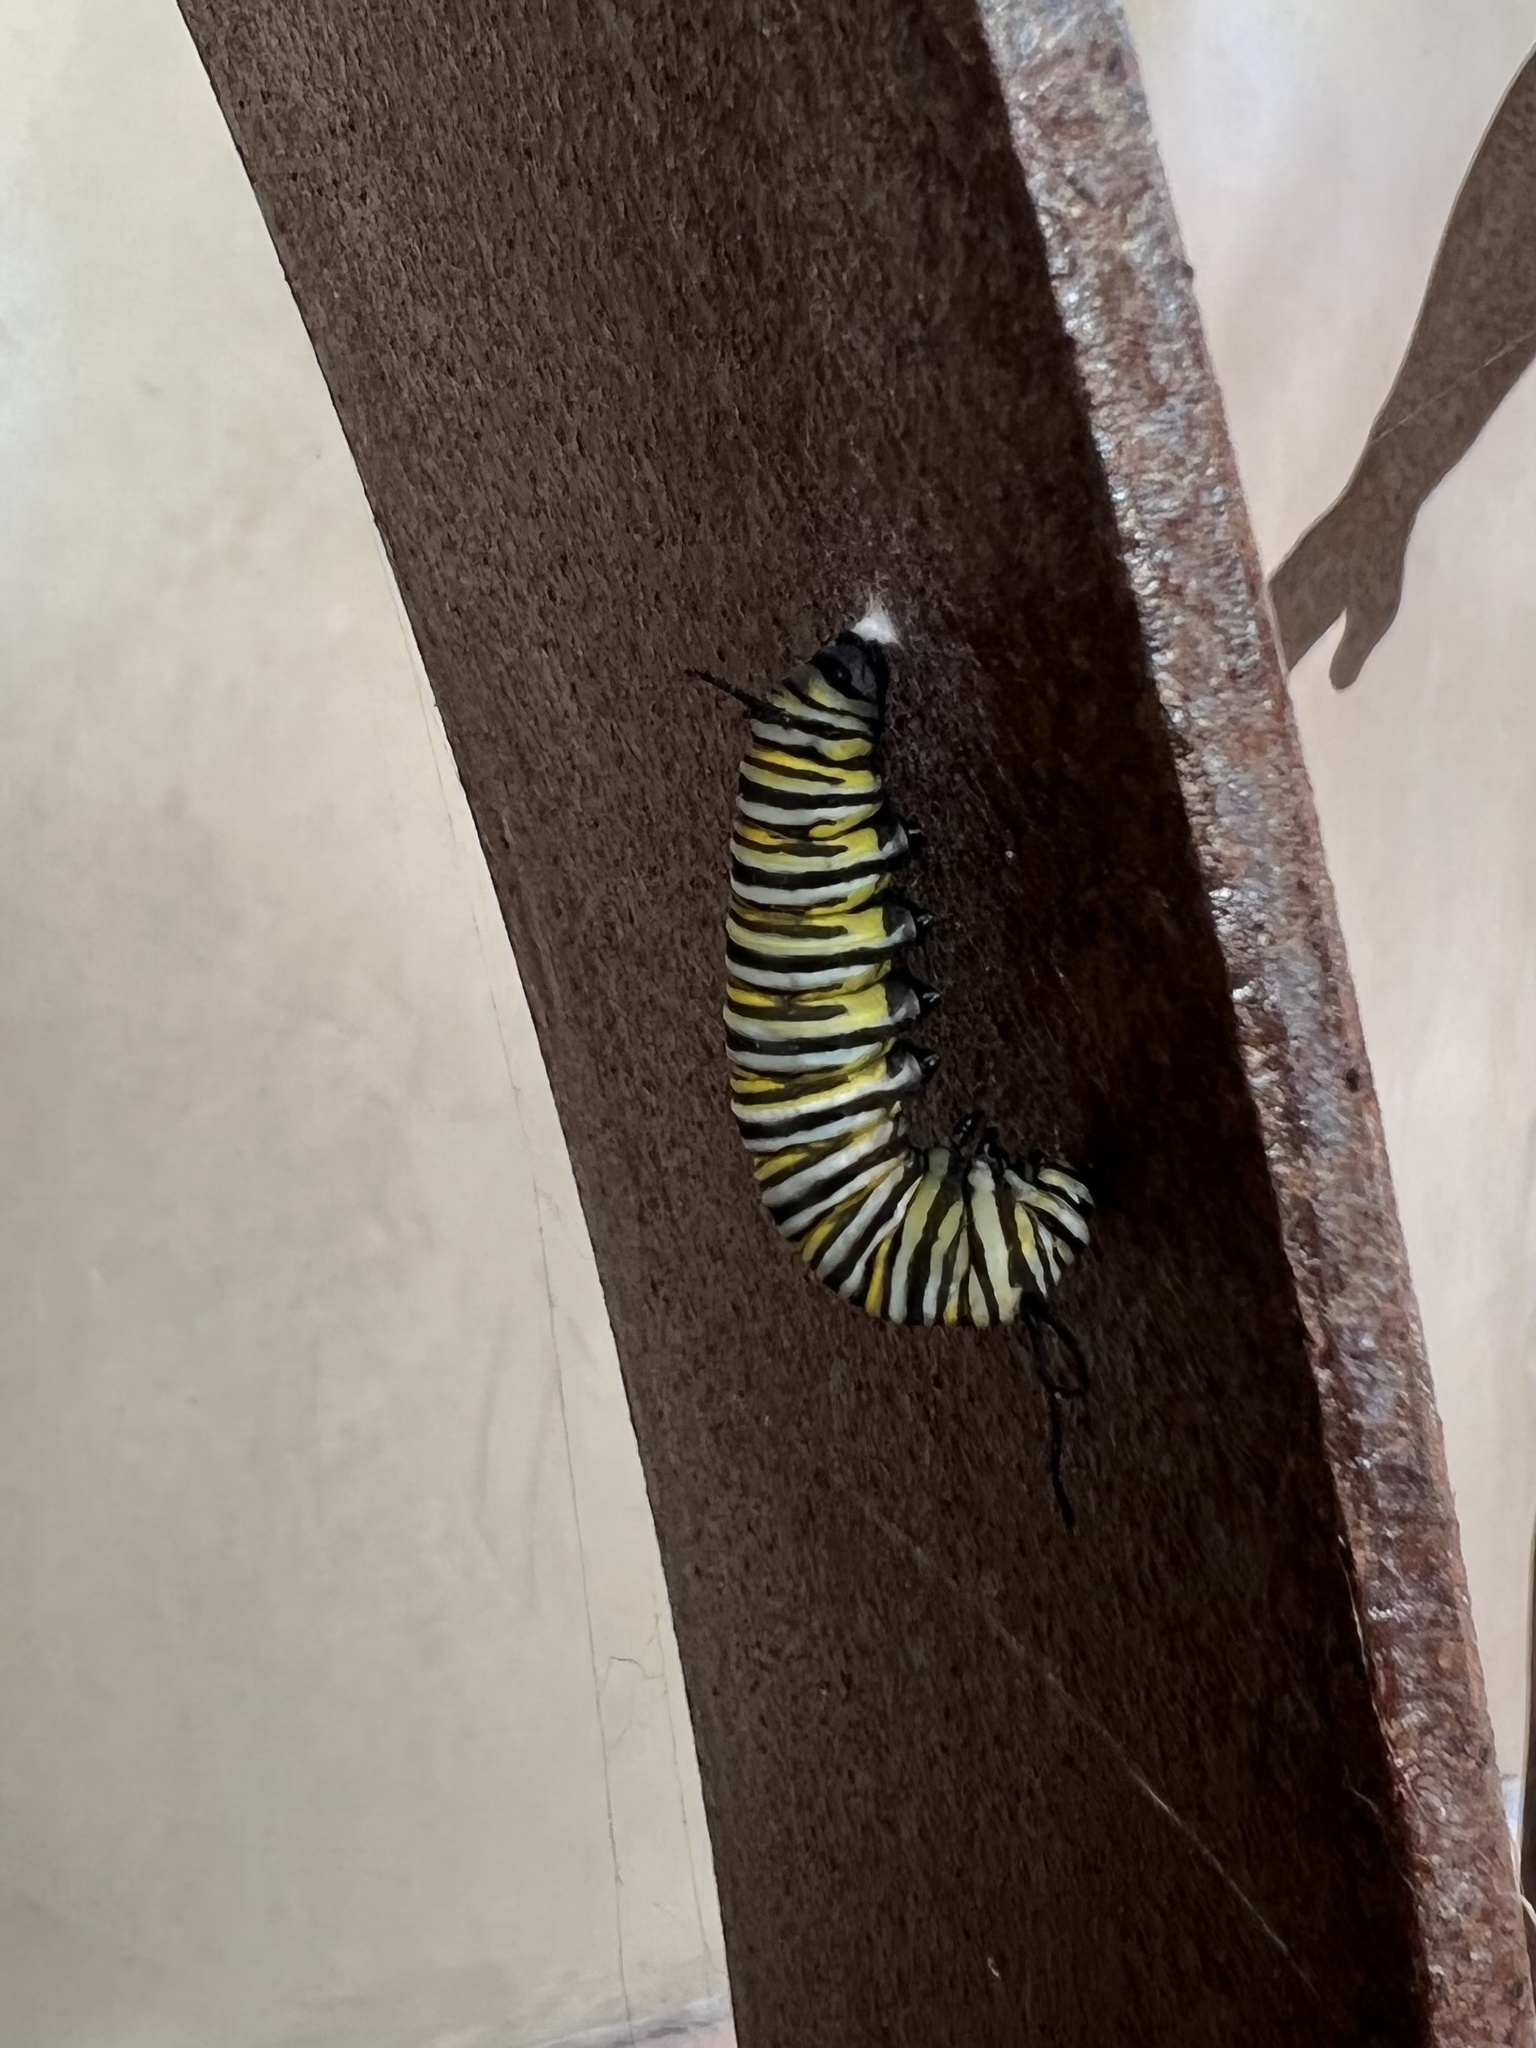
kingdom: Animalia
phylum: Arthropoda
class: Insecta
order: Lepidoptera
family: Nymphalidae
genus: Danaus
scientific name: Danaus plexippus
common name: Monarch
